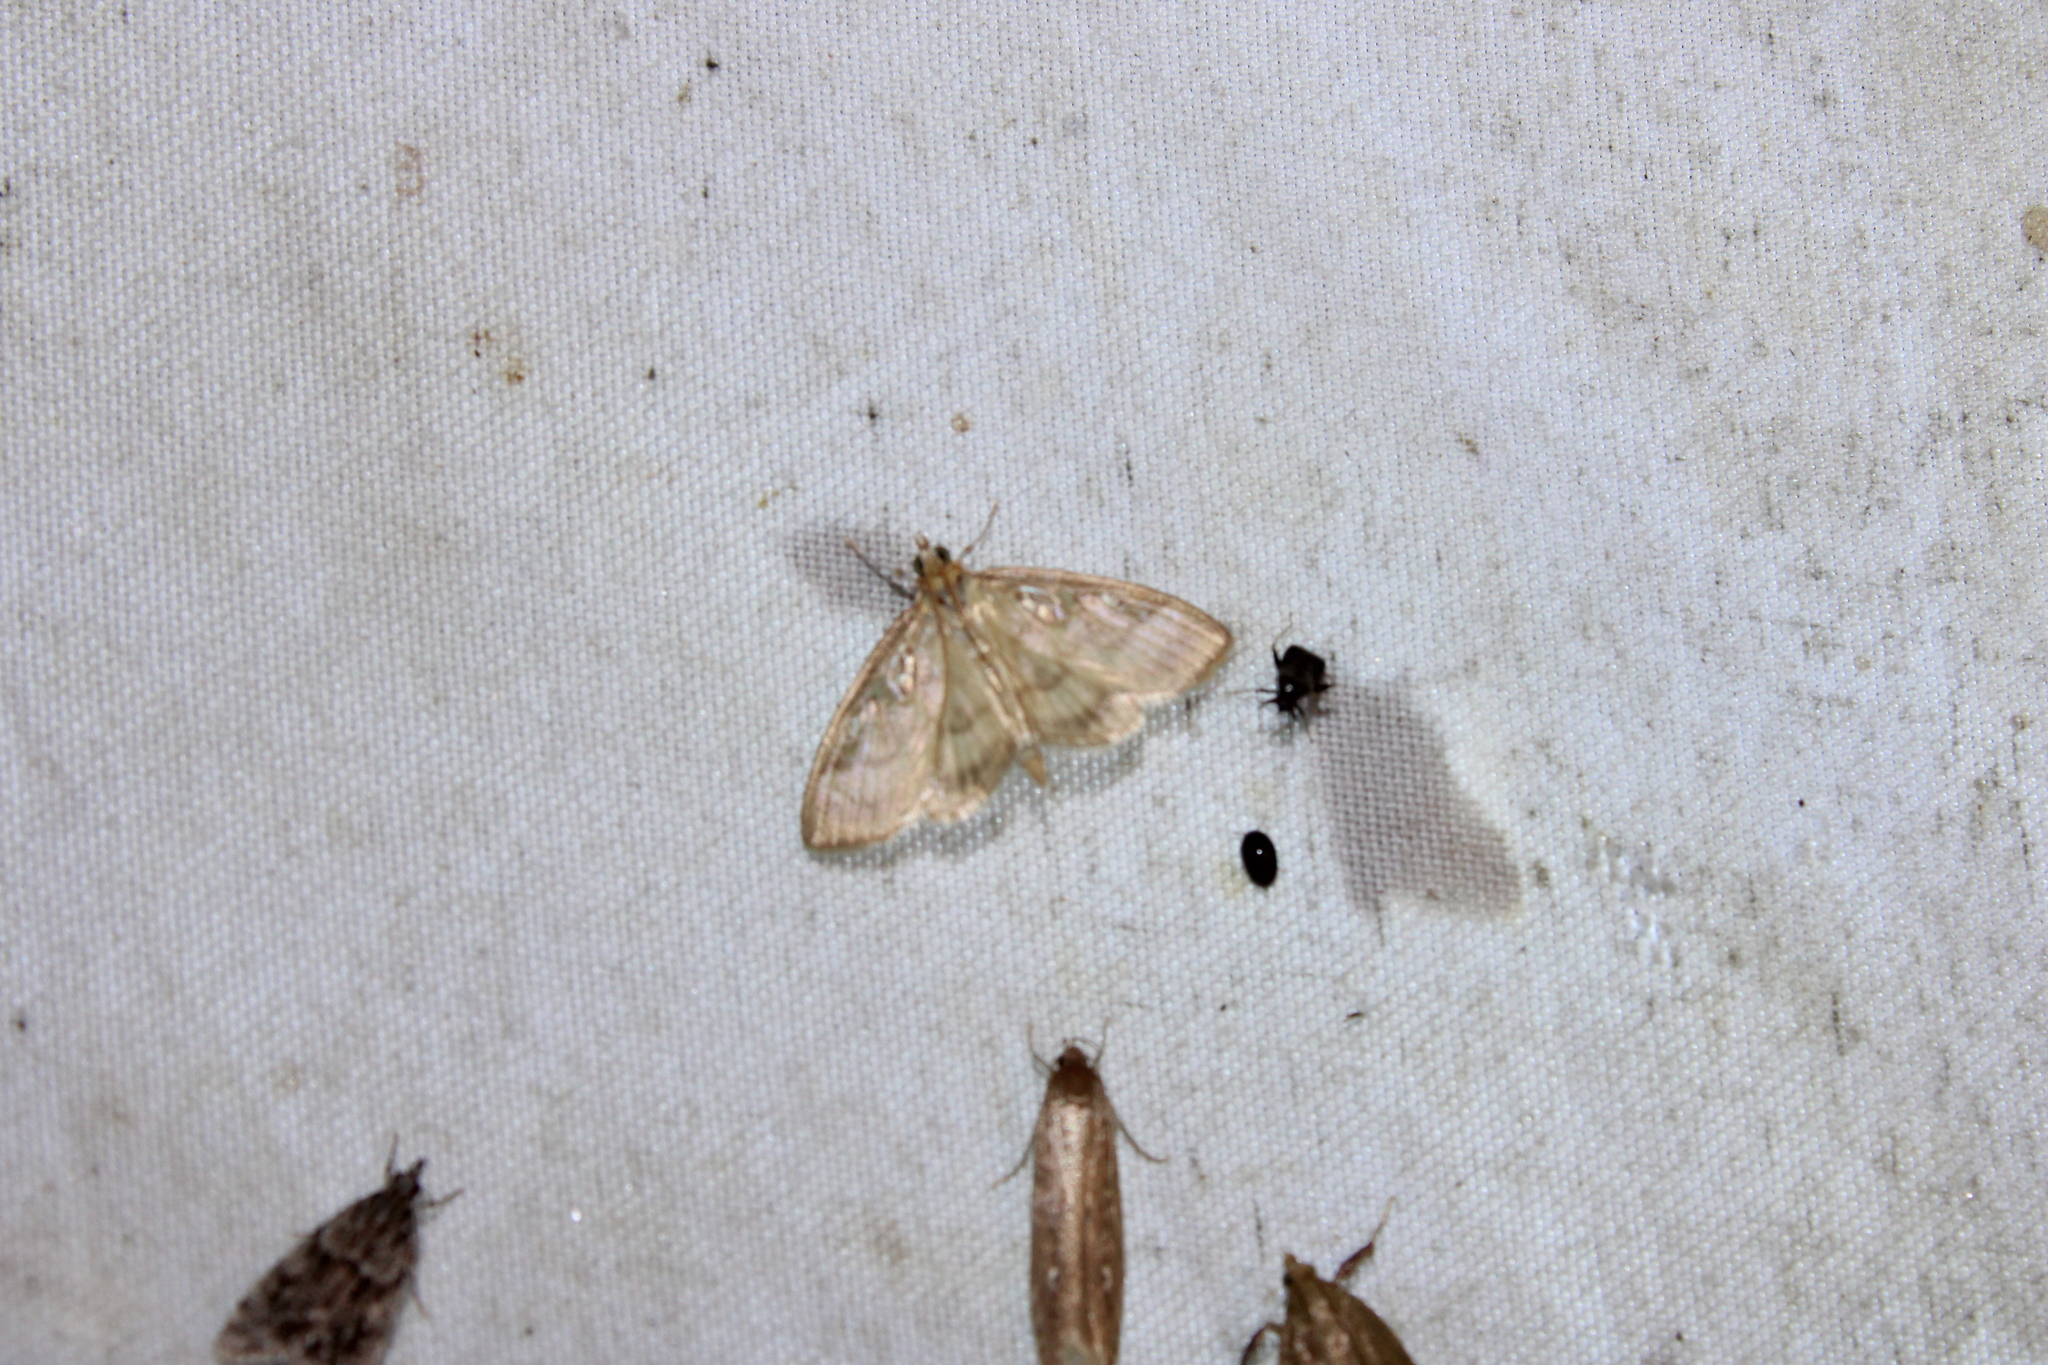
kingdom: Animalia
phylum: Arthropoda
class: Insecta
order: Lepidoptera
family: Crambidae
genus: Crocidophora
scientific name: Crocidophora tuberculalis
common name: Pale-winged crocidiphora moth
